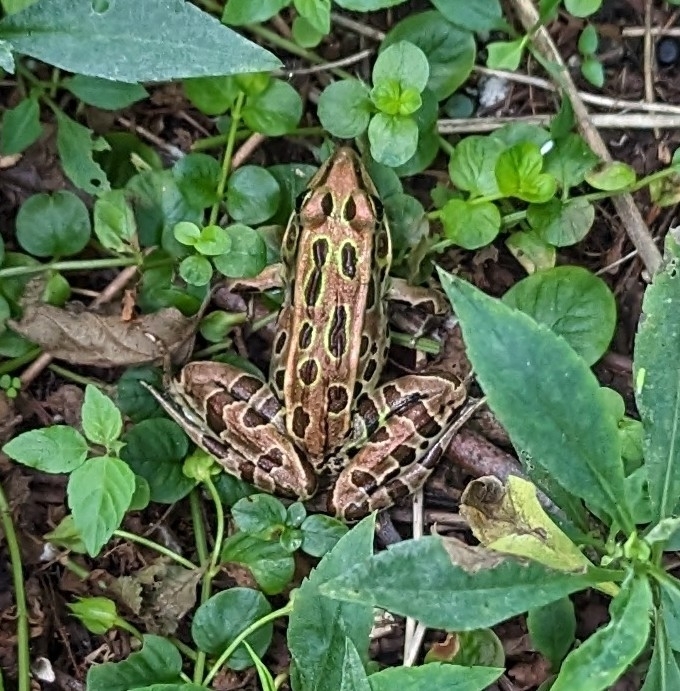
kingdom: Animalia
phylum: Chordata
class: Amphibia
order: Anura
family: Ranidae
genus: Lithobates
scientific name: Lithobates pipiens
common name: Northern leopard frog
